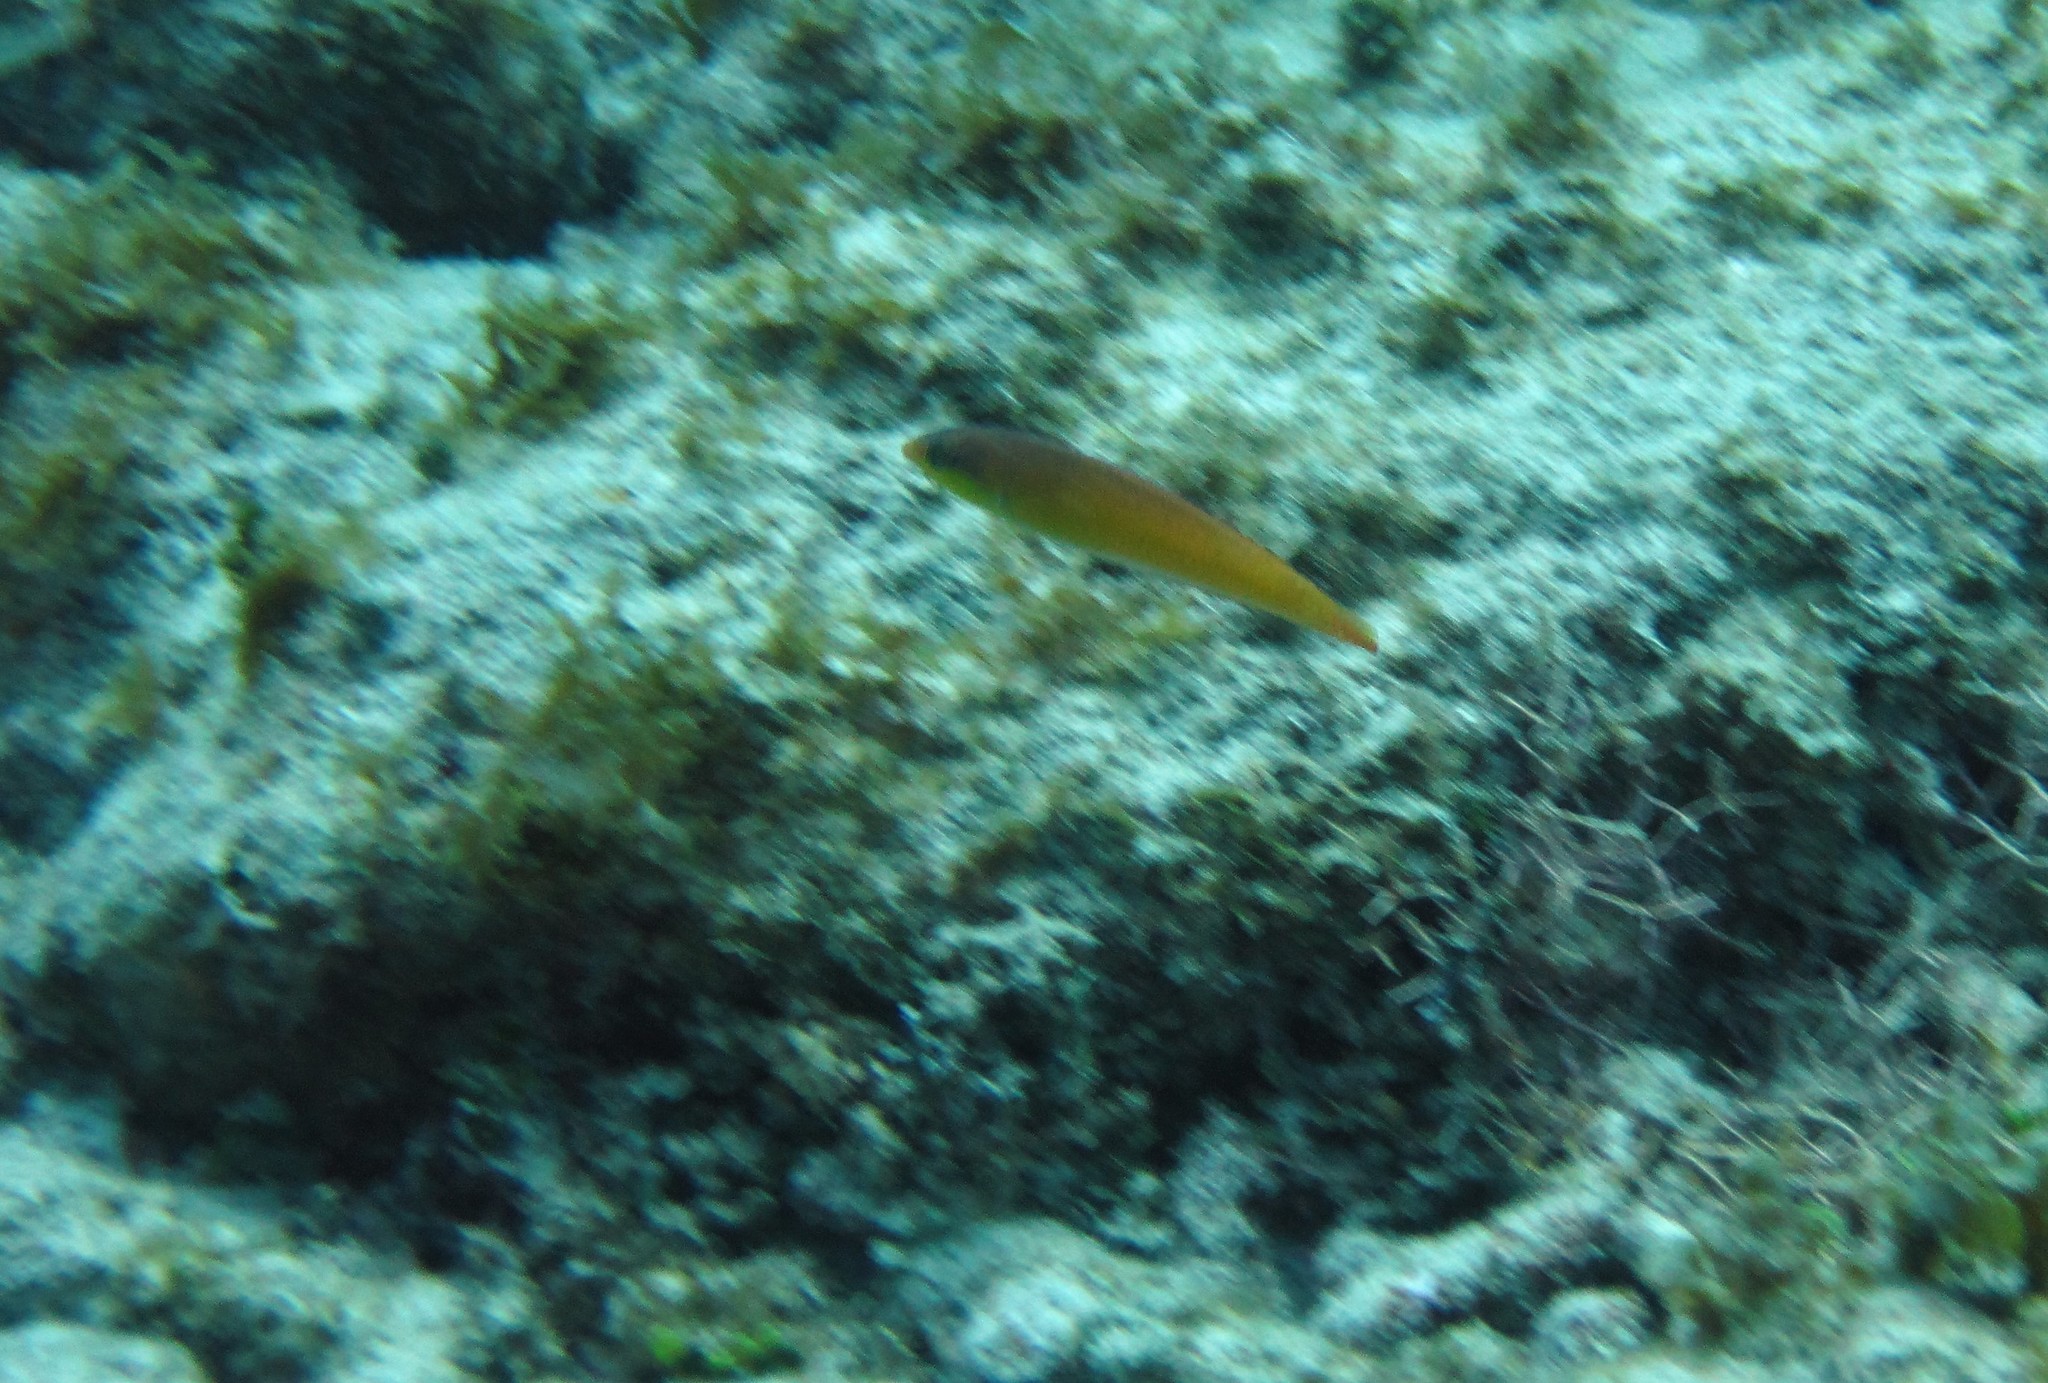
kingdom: Animalia
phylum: Chordata
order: Perciformes
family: Labridae
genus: Halichoeres
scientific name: Halichoeres garnoti
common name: Yellowhead wrasse
